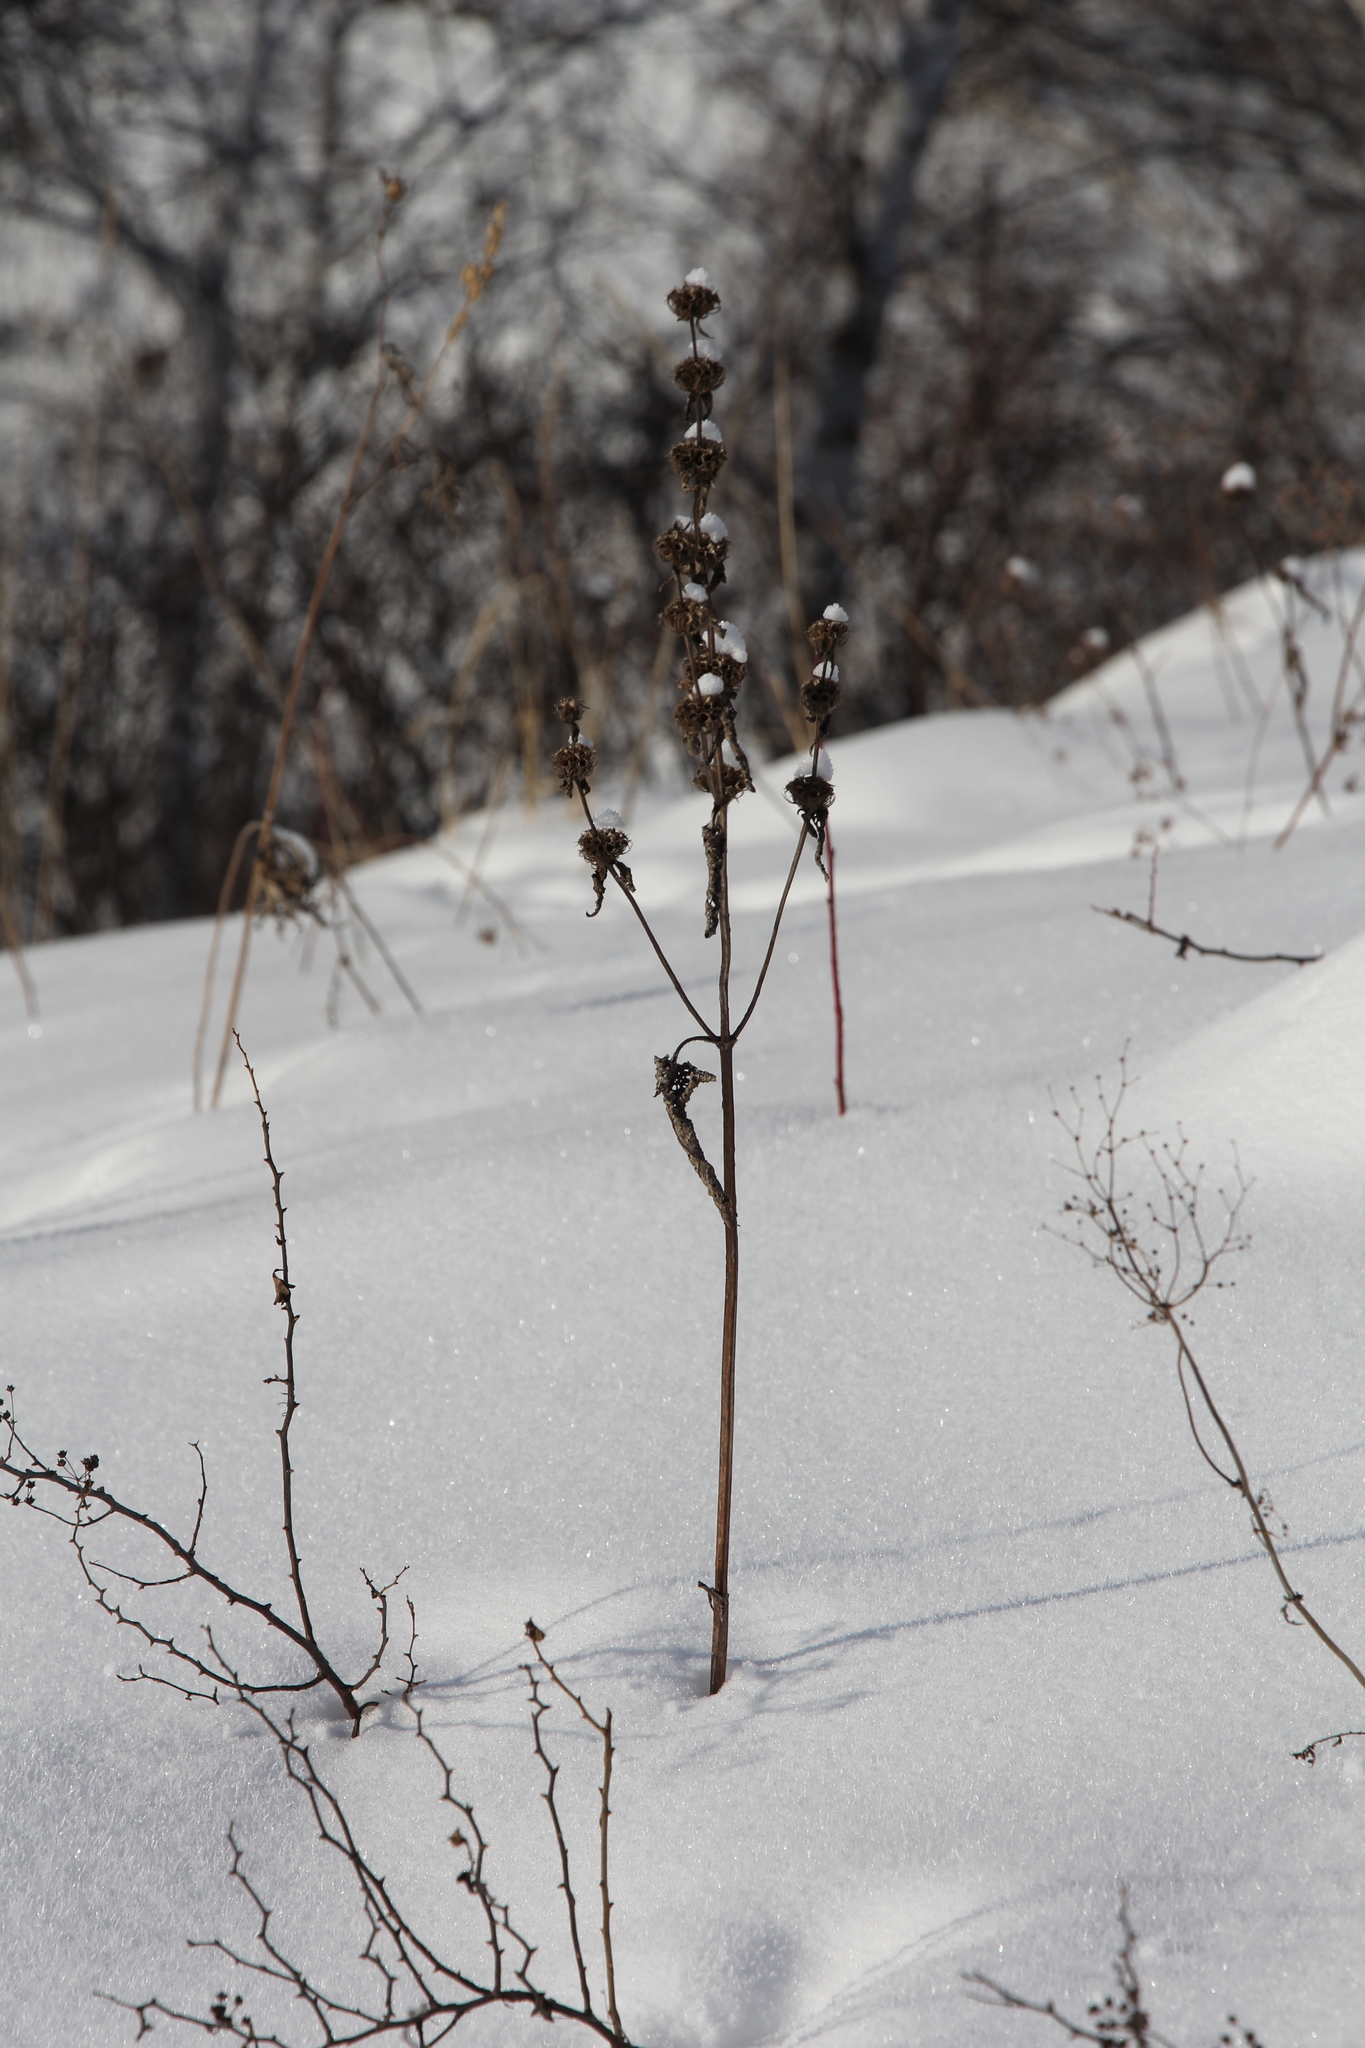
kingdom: Plantae
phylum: Tracheophyta
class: Magnoliopsida
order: Lamiales
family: Lamiaceae
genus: Phlomoides
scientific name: Phlomoides tuberosa
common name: Tuberous jerusalem sage
